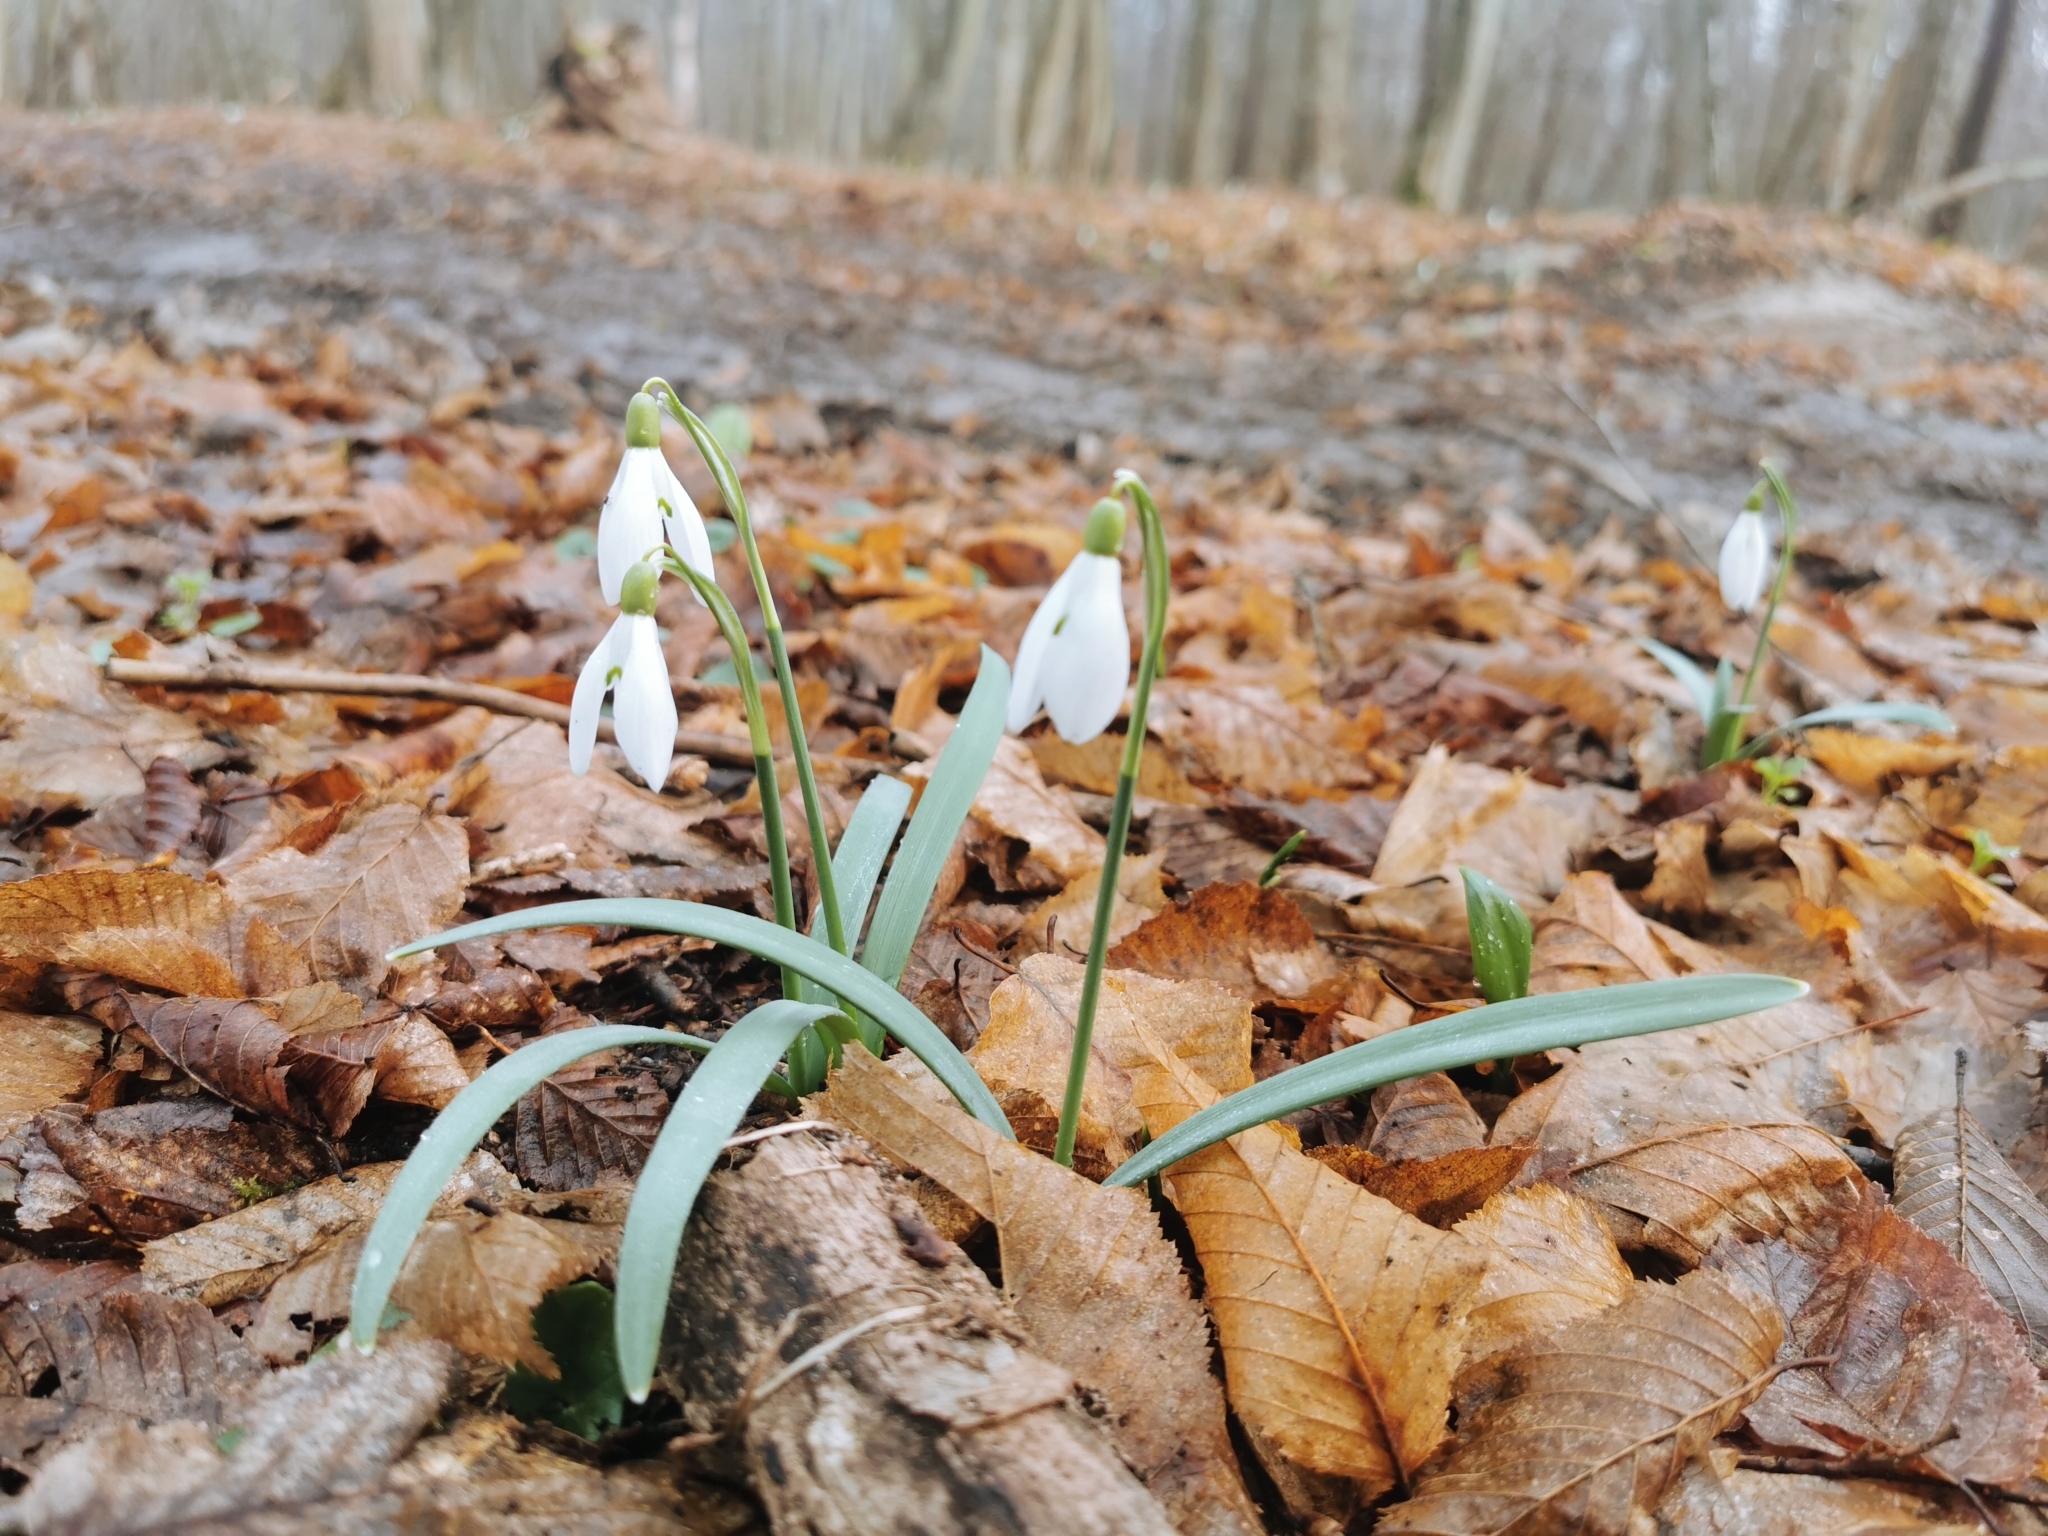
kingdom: Plantae
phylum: Tracheophyta
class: Liliopsida
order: Asparagales
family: Amaryllidaceae
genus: Galanthus
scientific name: Galanthus nivalis
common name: Snowdrop
